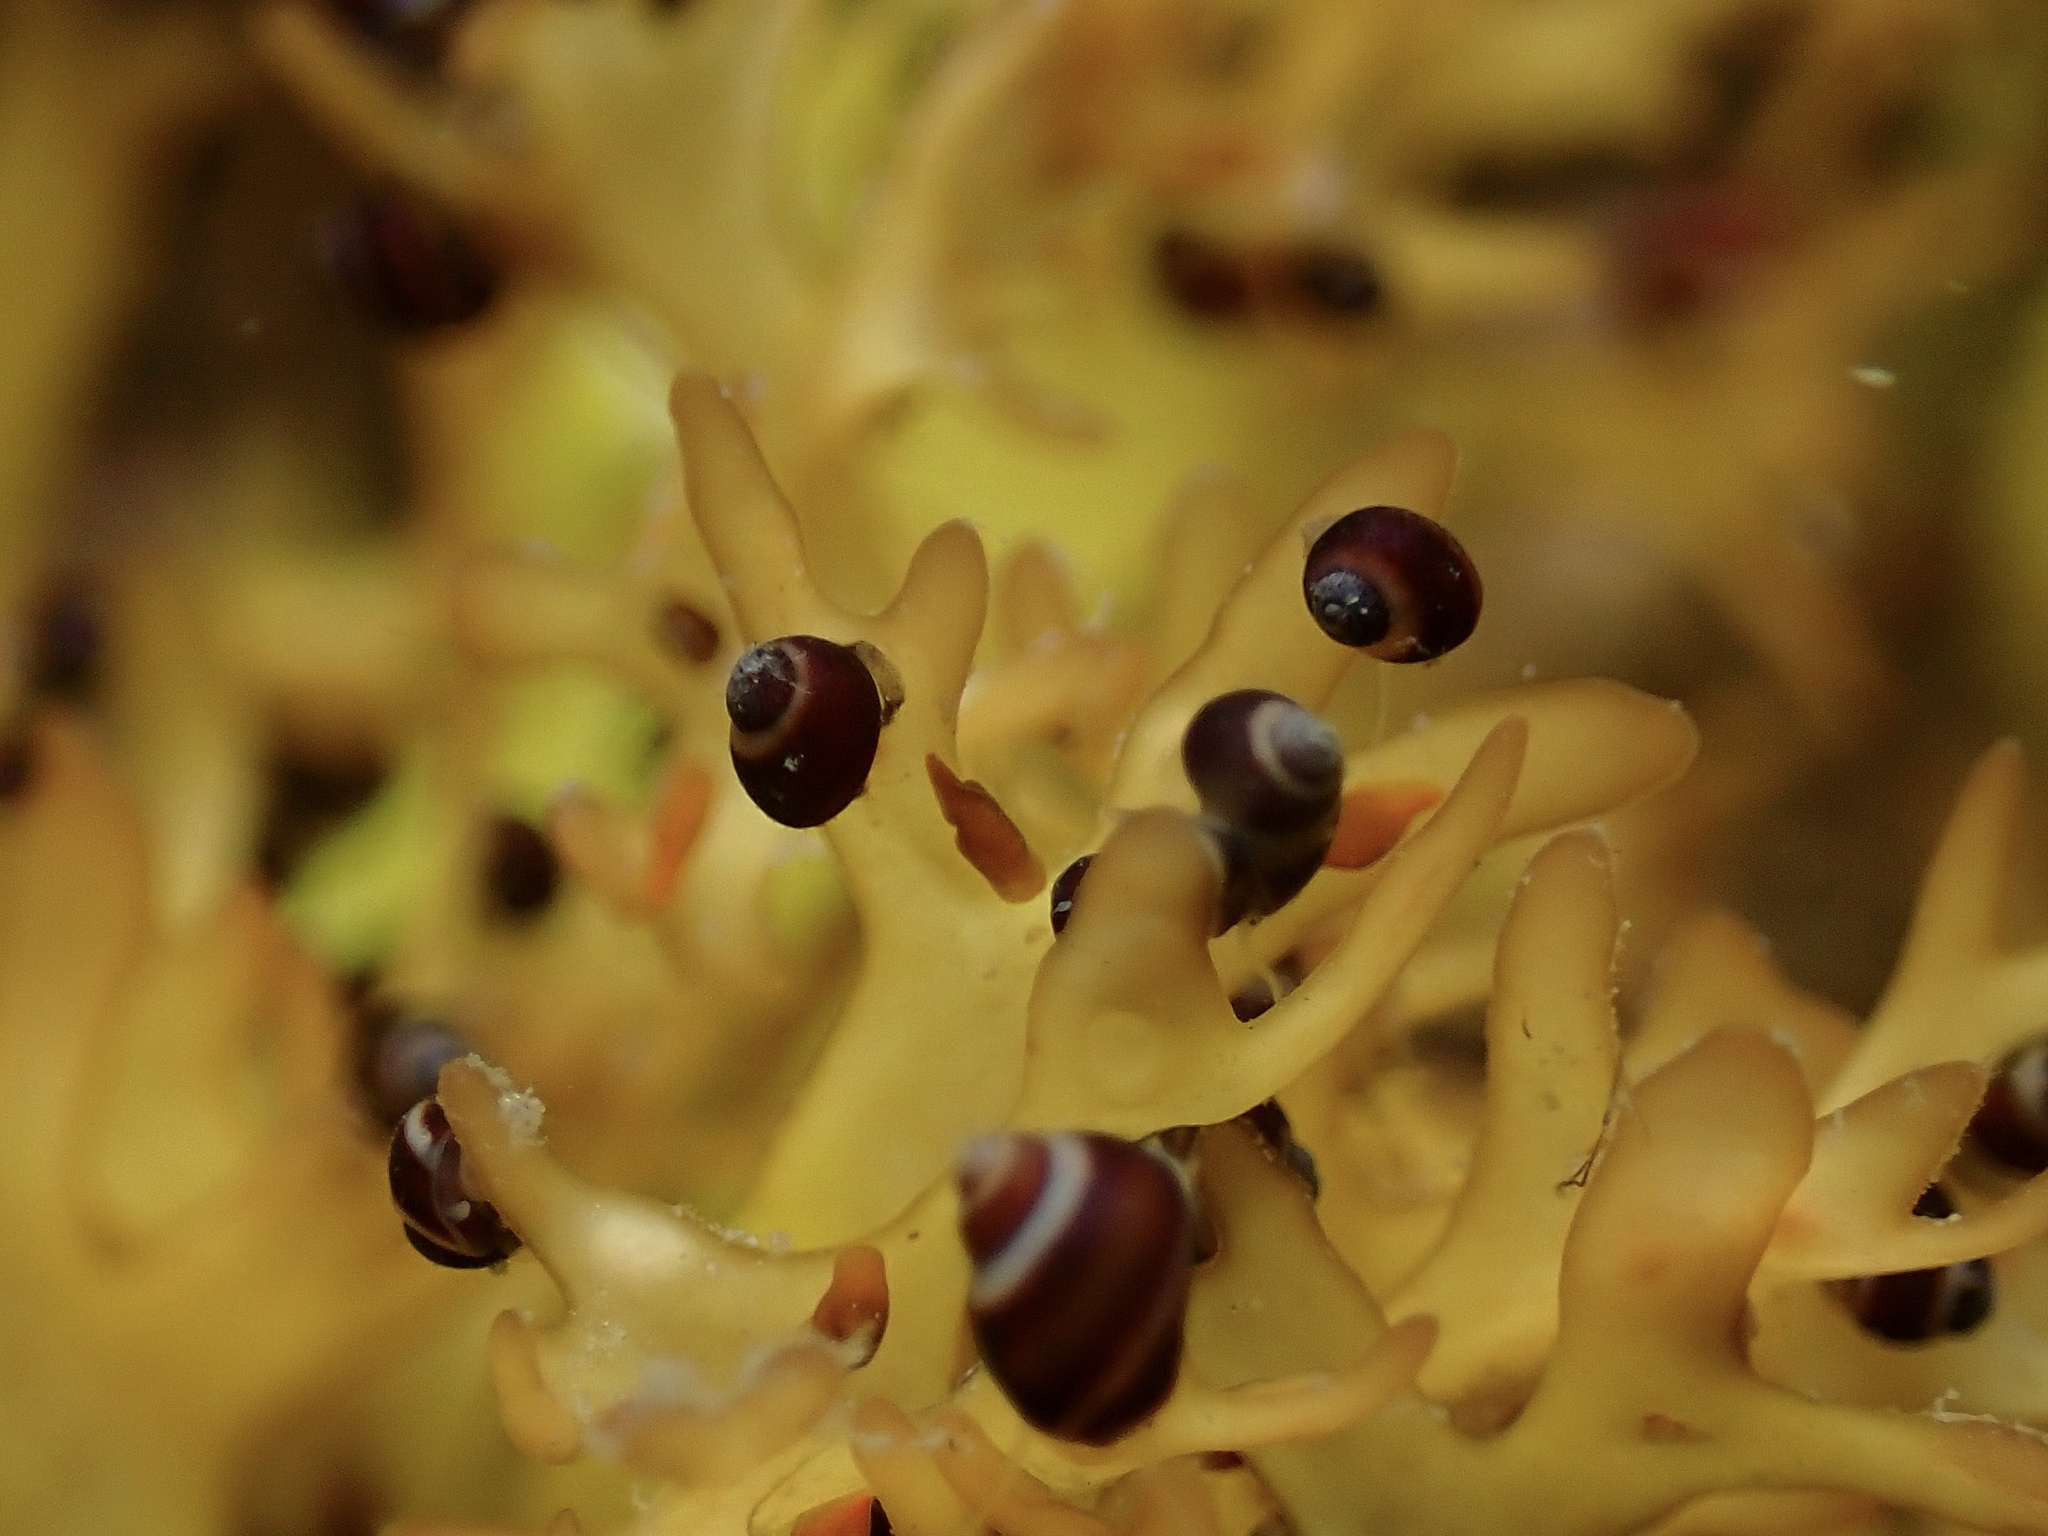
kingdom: Animalia
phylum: Mollusca
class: Gastropoda
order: Littorinimorpha
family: Littorinidae
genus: Lacuna
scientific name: Lacuna vincta
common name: Banded chink shell
